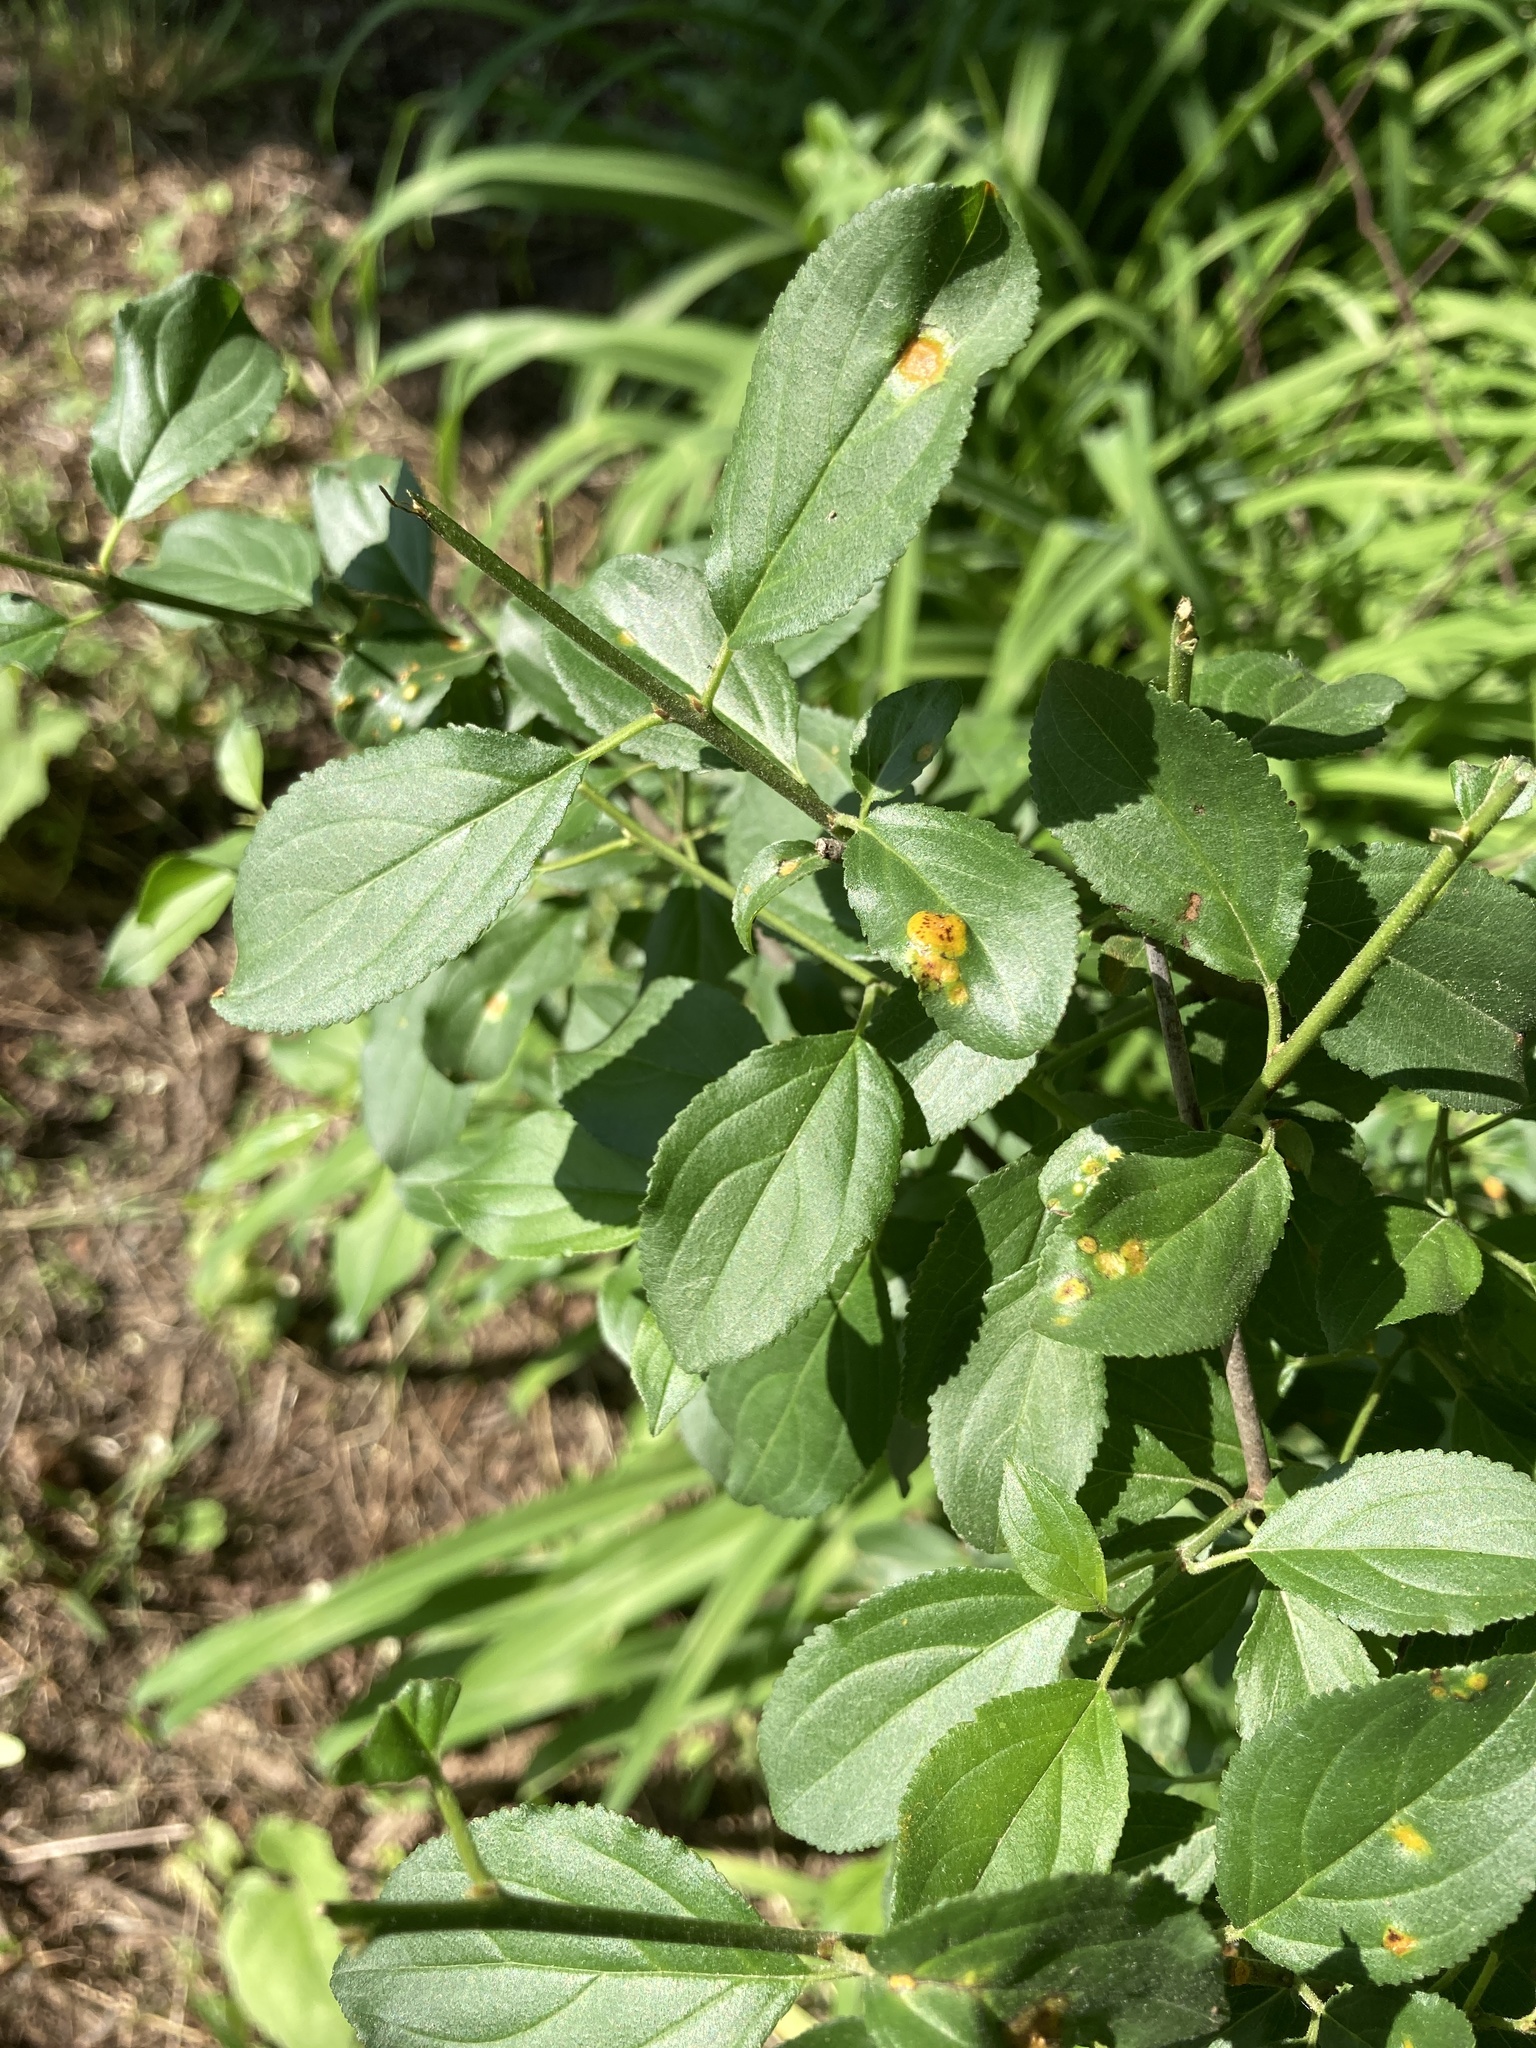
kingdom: Fungi
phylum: Basidiomycota
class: Pucciniomycetes
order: Pucciniales
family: Pucciniaceae
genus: Puccinia
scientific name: Puccinia coronata
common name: Crown rust
